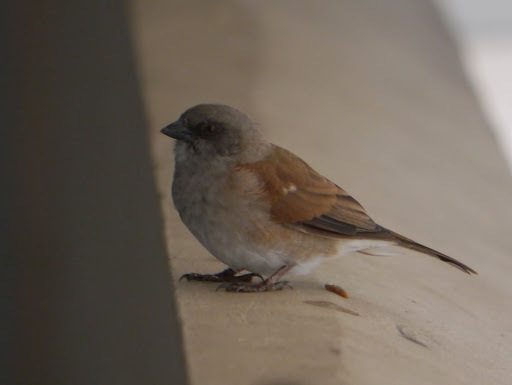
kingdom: Animalia
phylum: Chordata
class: Aves
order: Passeriformes
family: Passeridae
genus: Passer
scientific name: Passer griseus
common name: Northern grey-headed sparrow
